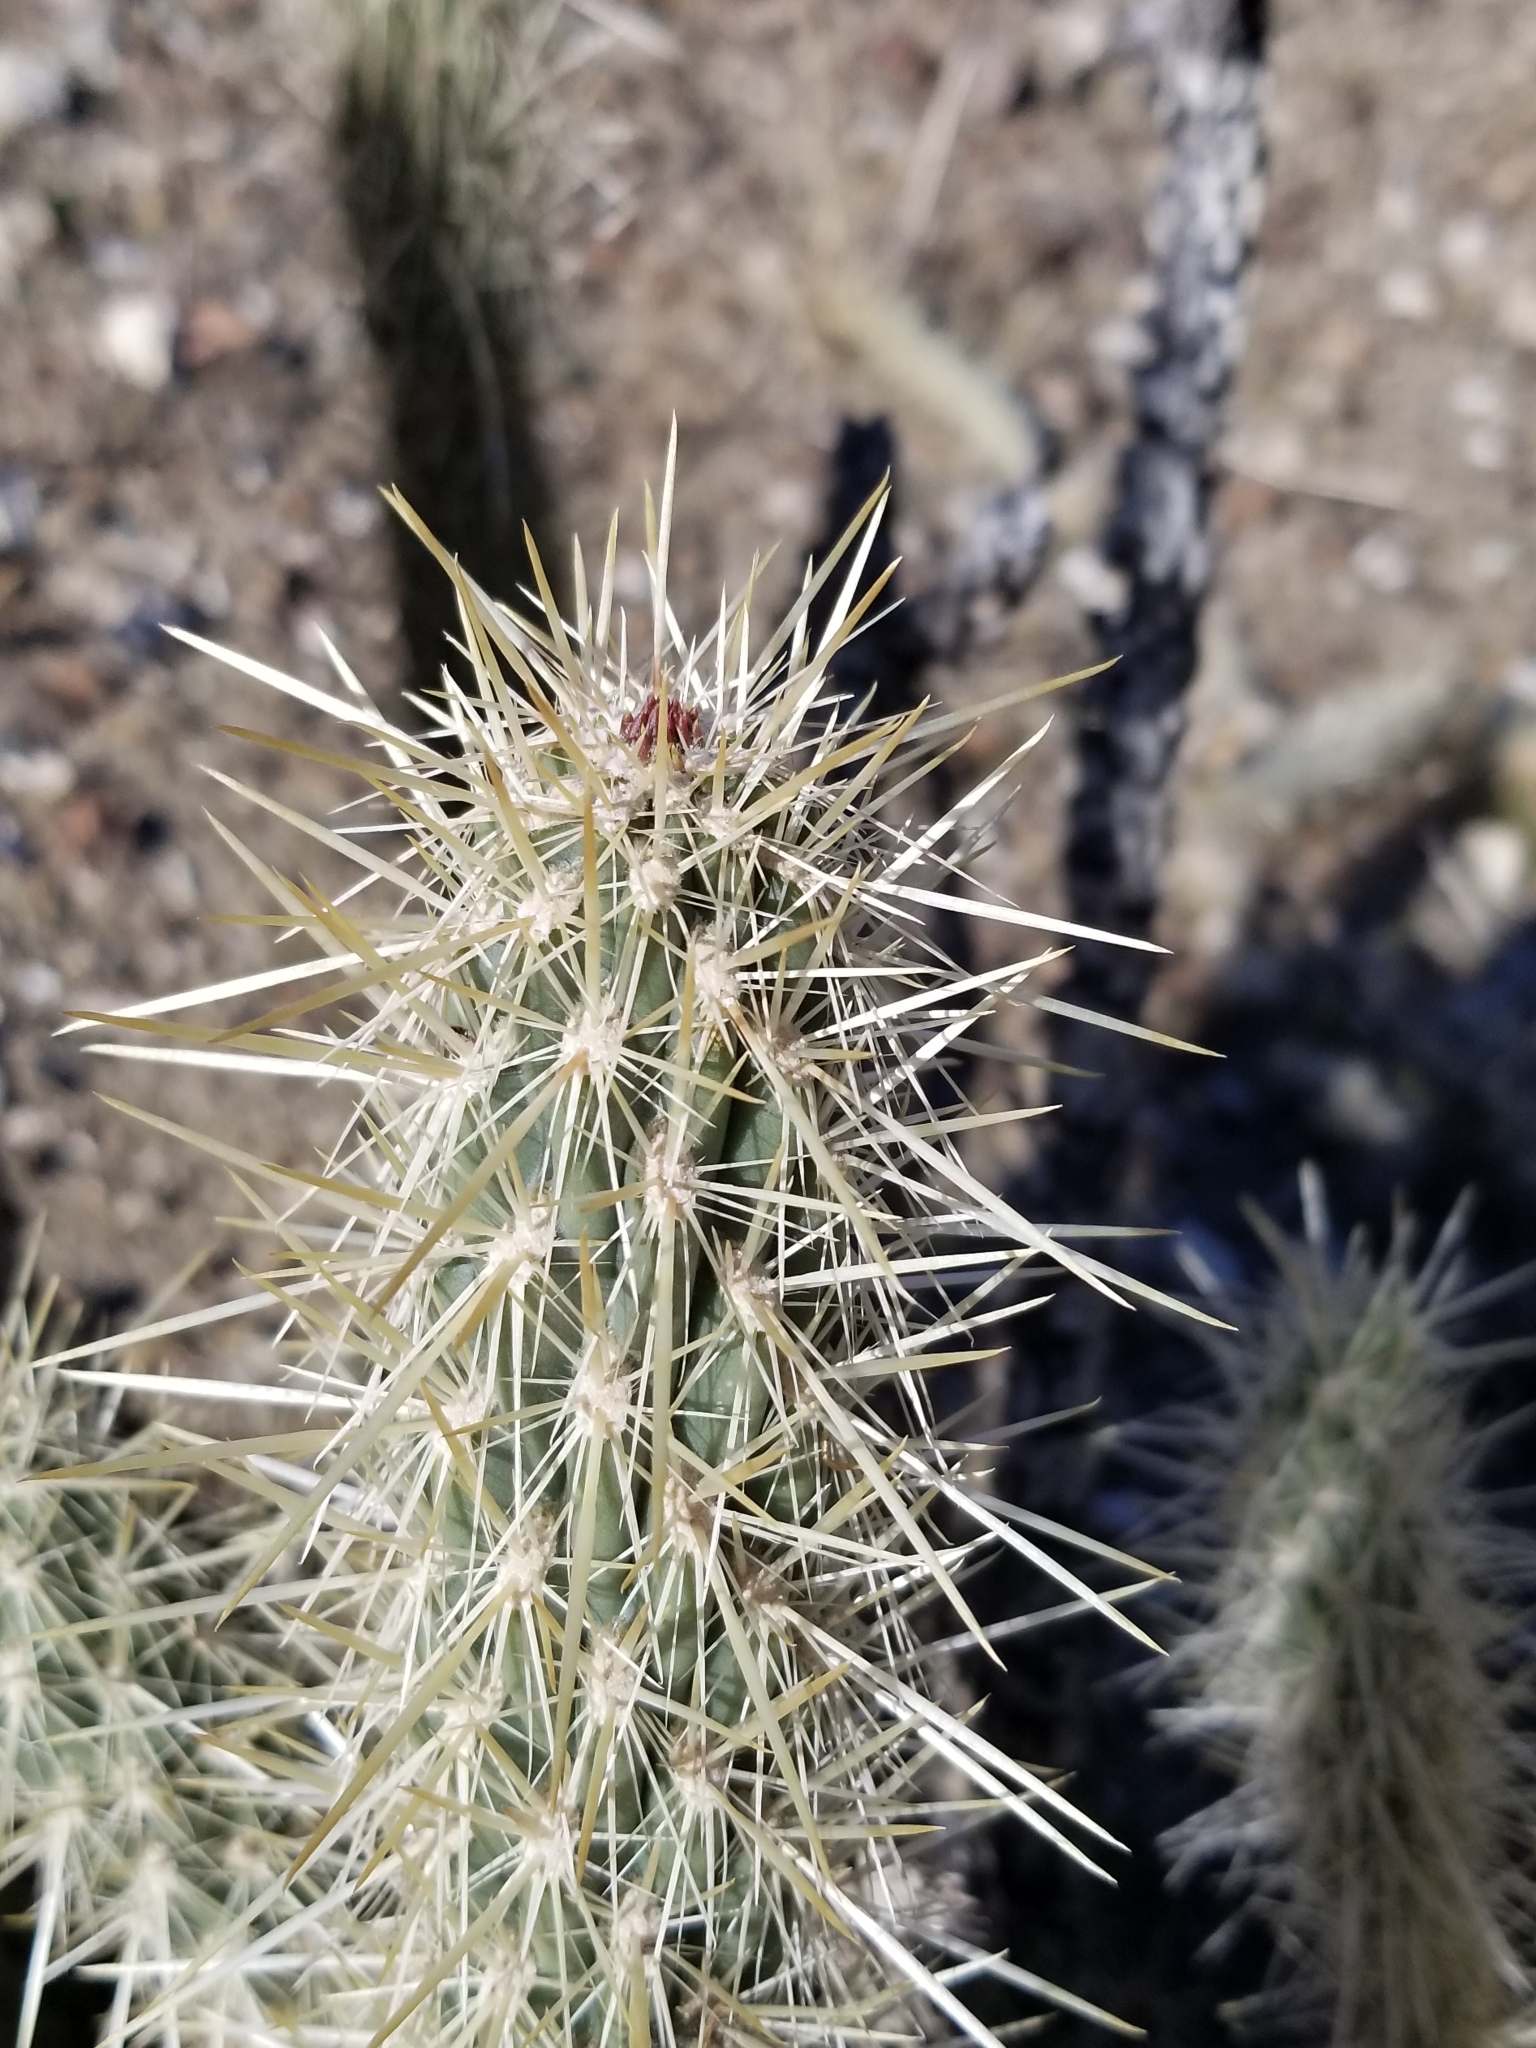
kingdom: Plantae
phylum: Tracheophyta
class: Magnoliopsida
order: Caryophyllales
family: Cactaceae
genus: Cylindropuntia
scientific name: Cylindropuntia ganderi
